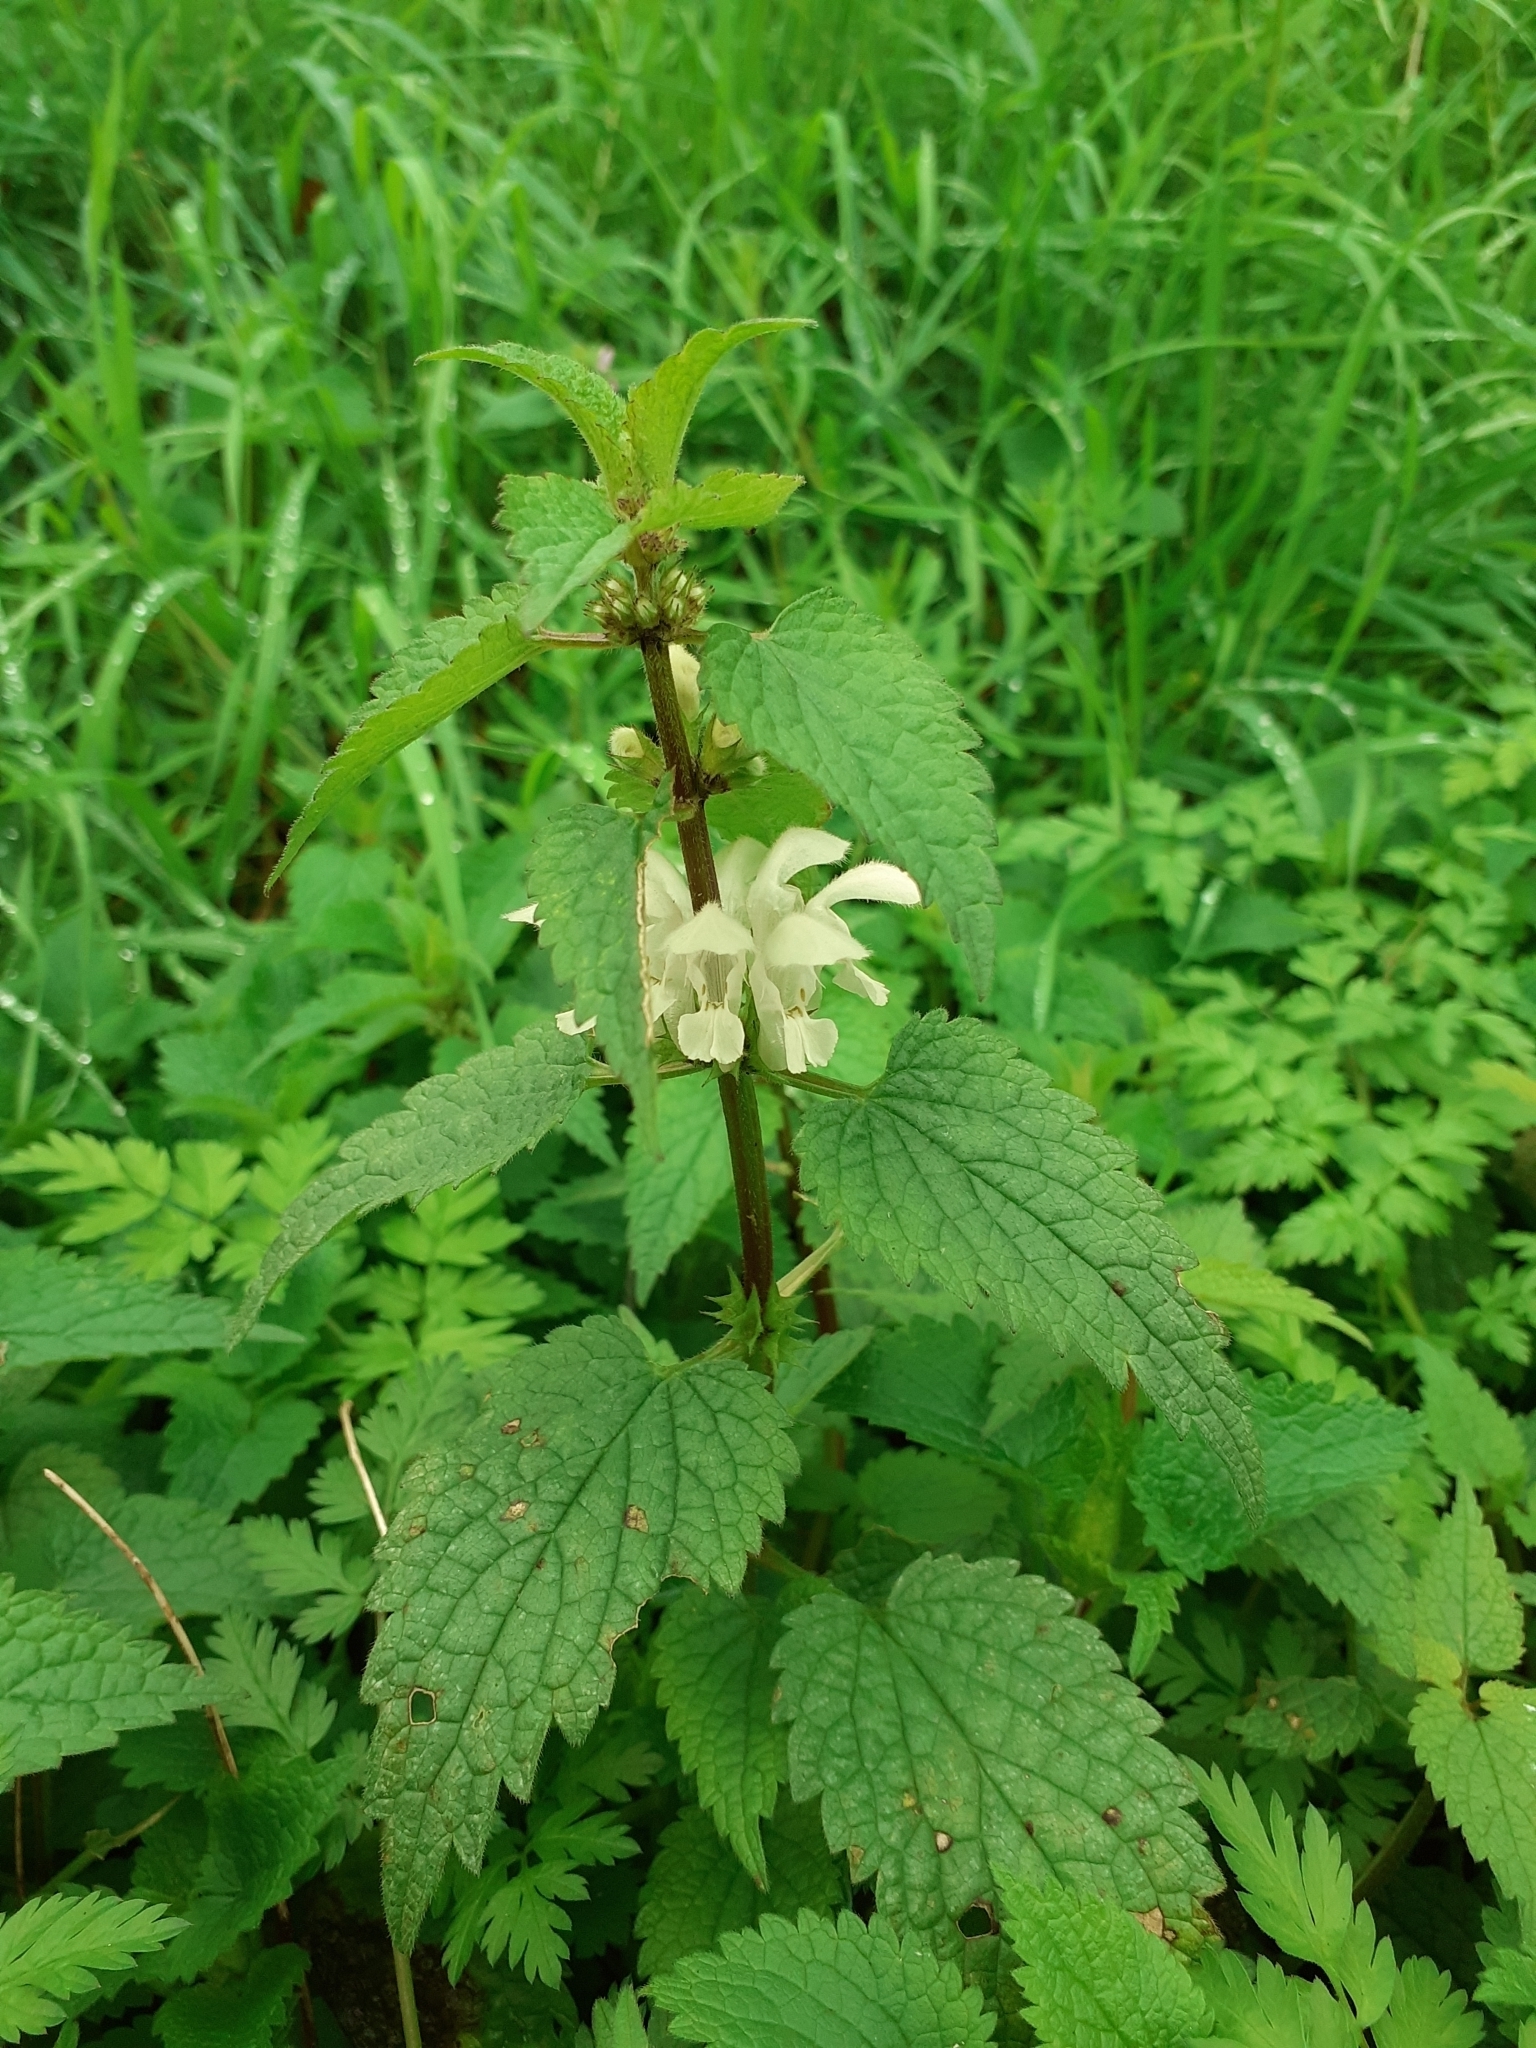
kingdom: Plantae
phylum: Tracheophyta
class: Magnoliopsida
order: Lamiales
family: Lamiaceae
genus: Lamium
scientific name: Lamium album
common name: White dead-nettle
